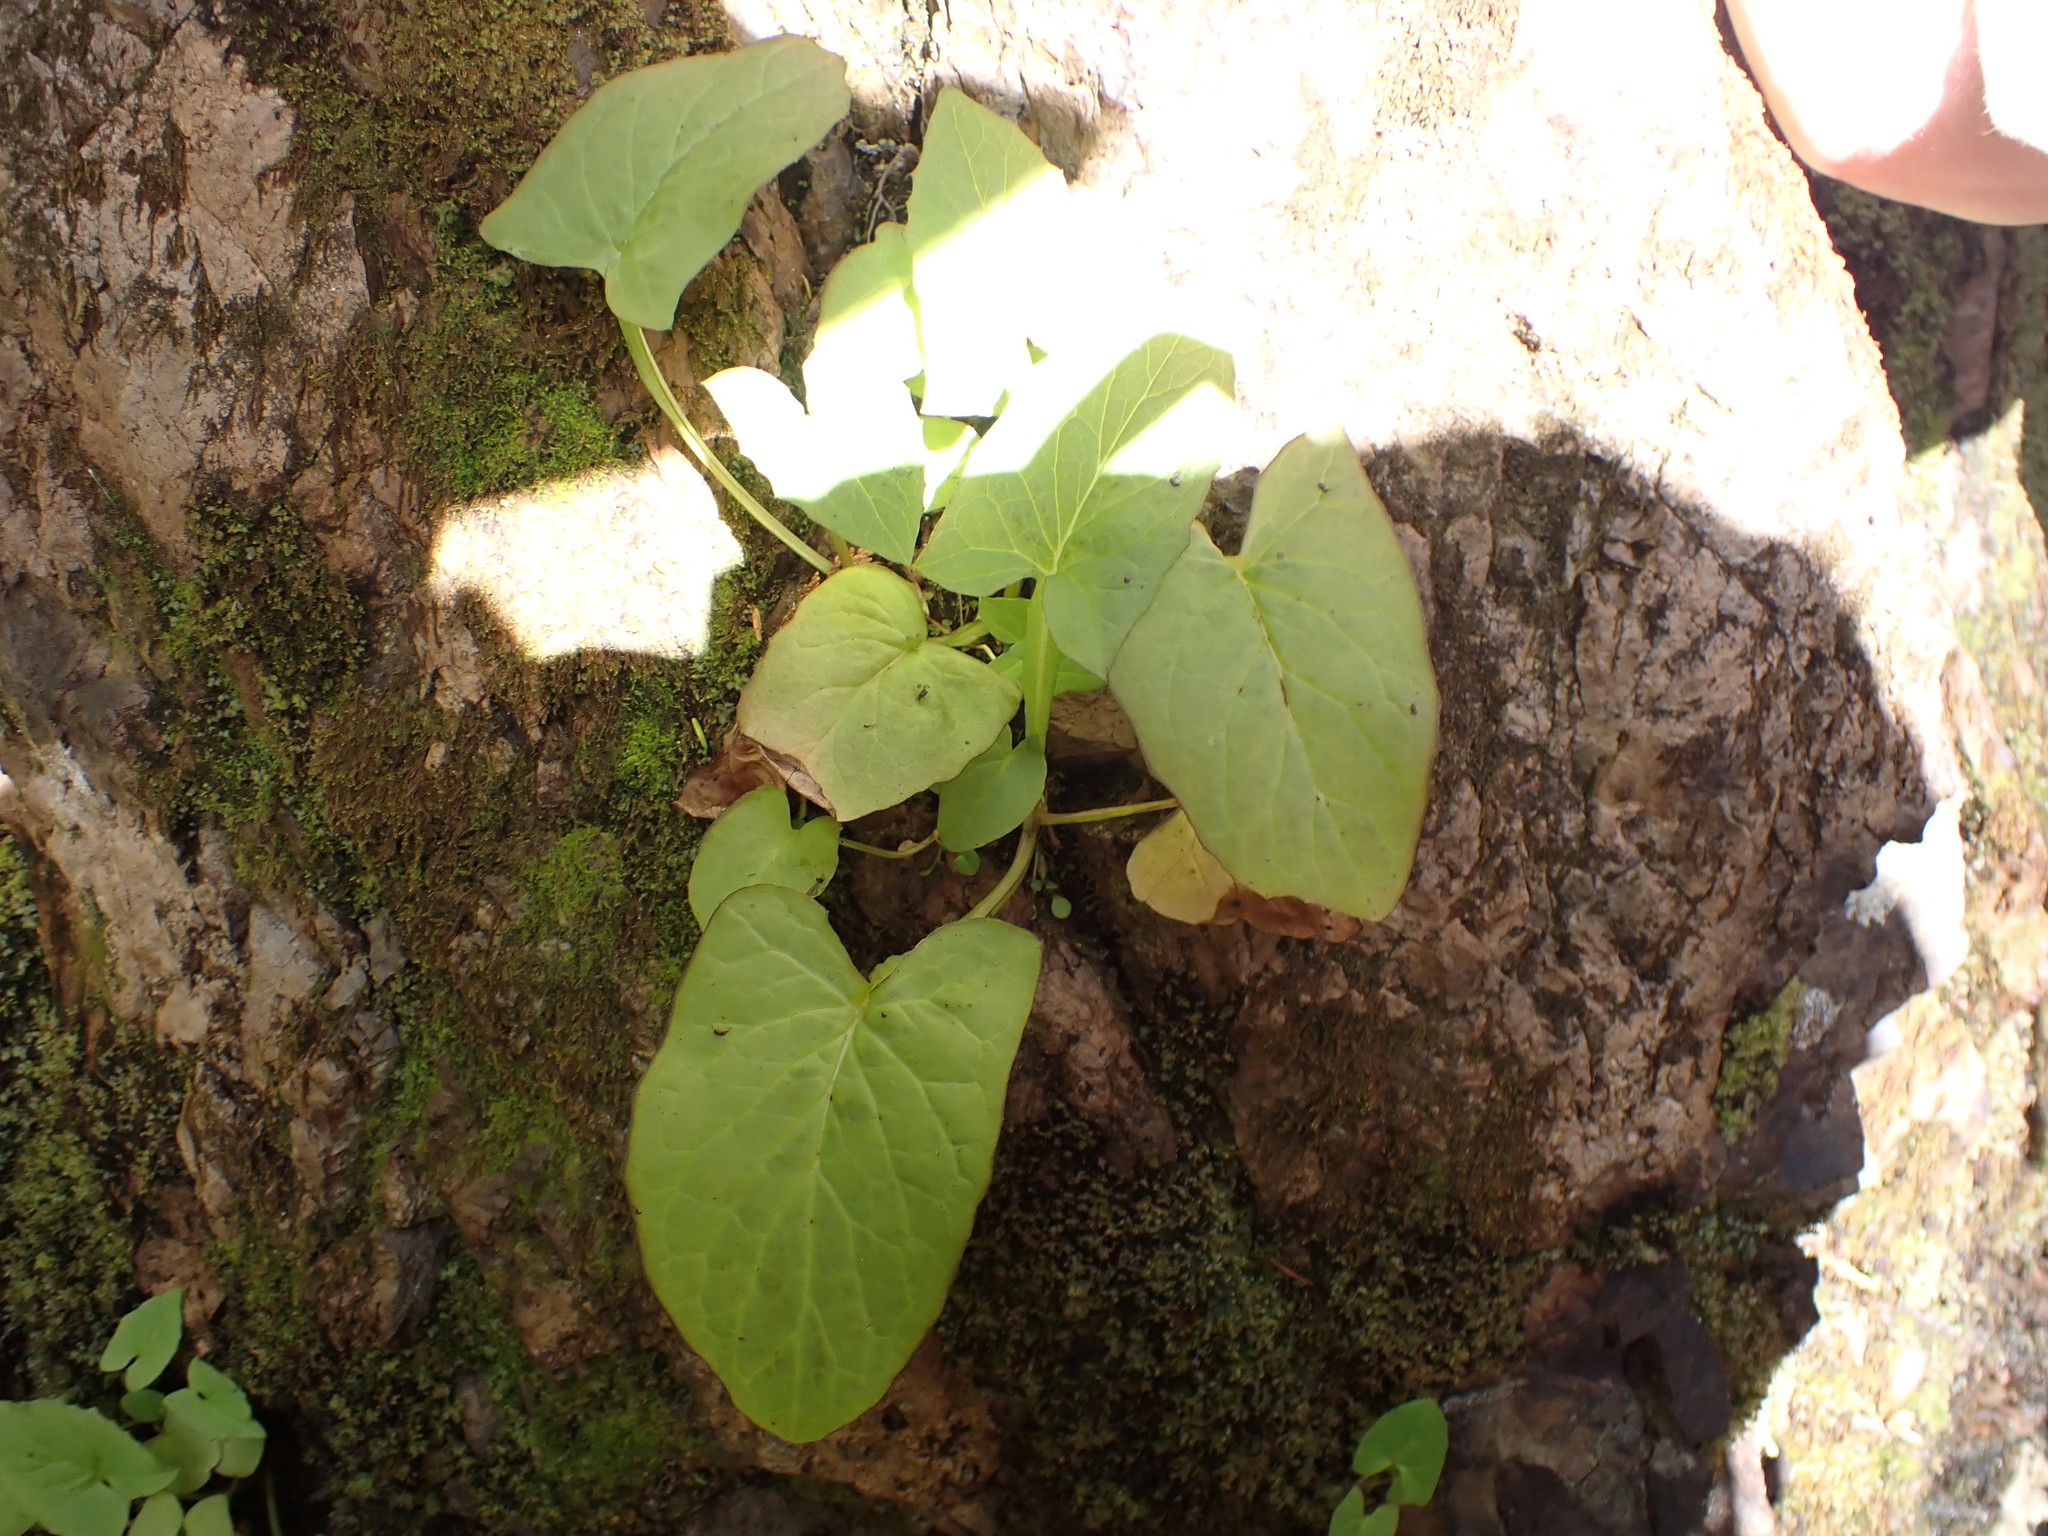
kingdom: Plantae
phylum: Tracheophyta
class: Magnoliopsida
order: Asterales
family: Asteraceae
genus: Nabalus
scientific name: Nabalus hastatus
